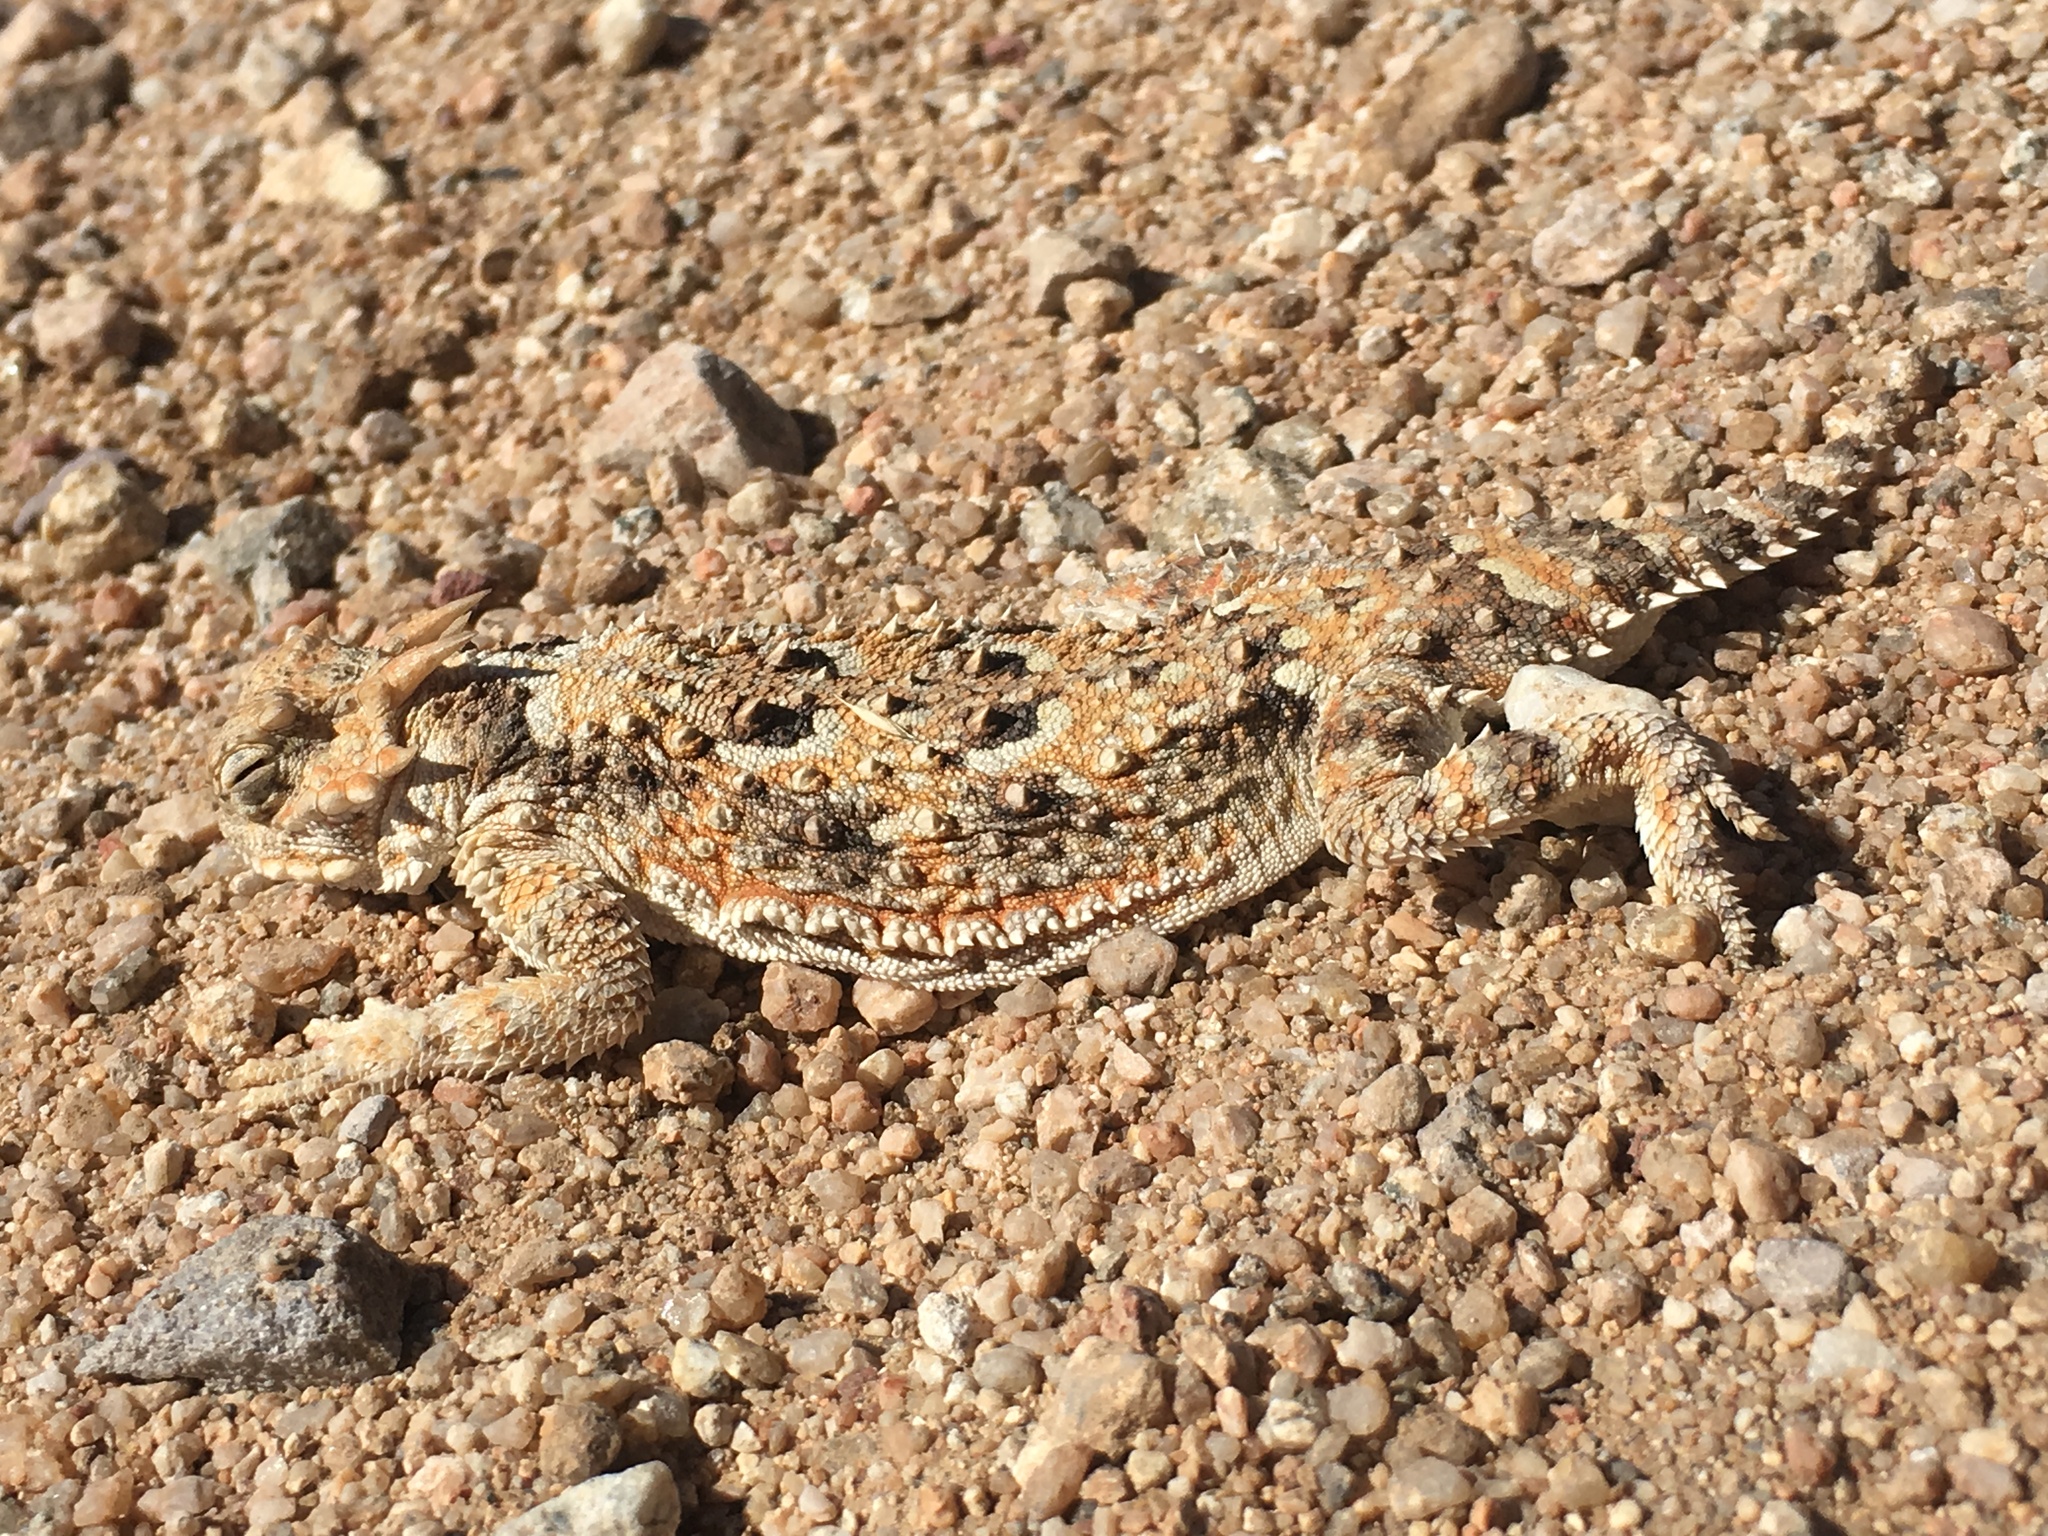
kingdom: Animalia
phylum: Chordata
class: Squamata
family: Phrynosomatidae
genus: Phrynosoma
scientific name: Phrynosoma platyrhinos
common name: Desert horned lizard
